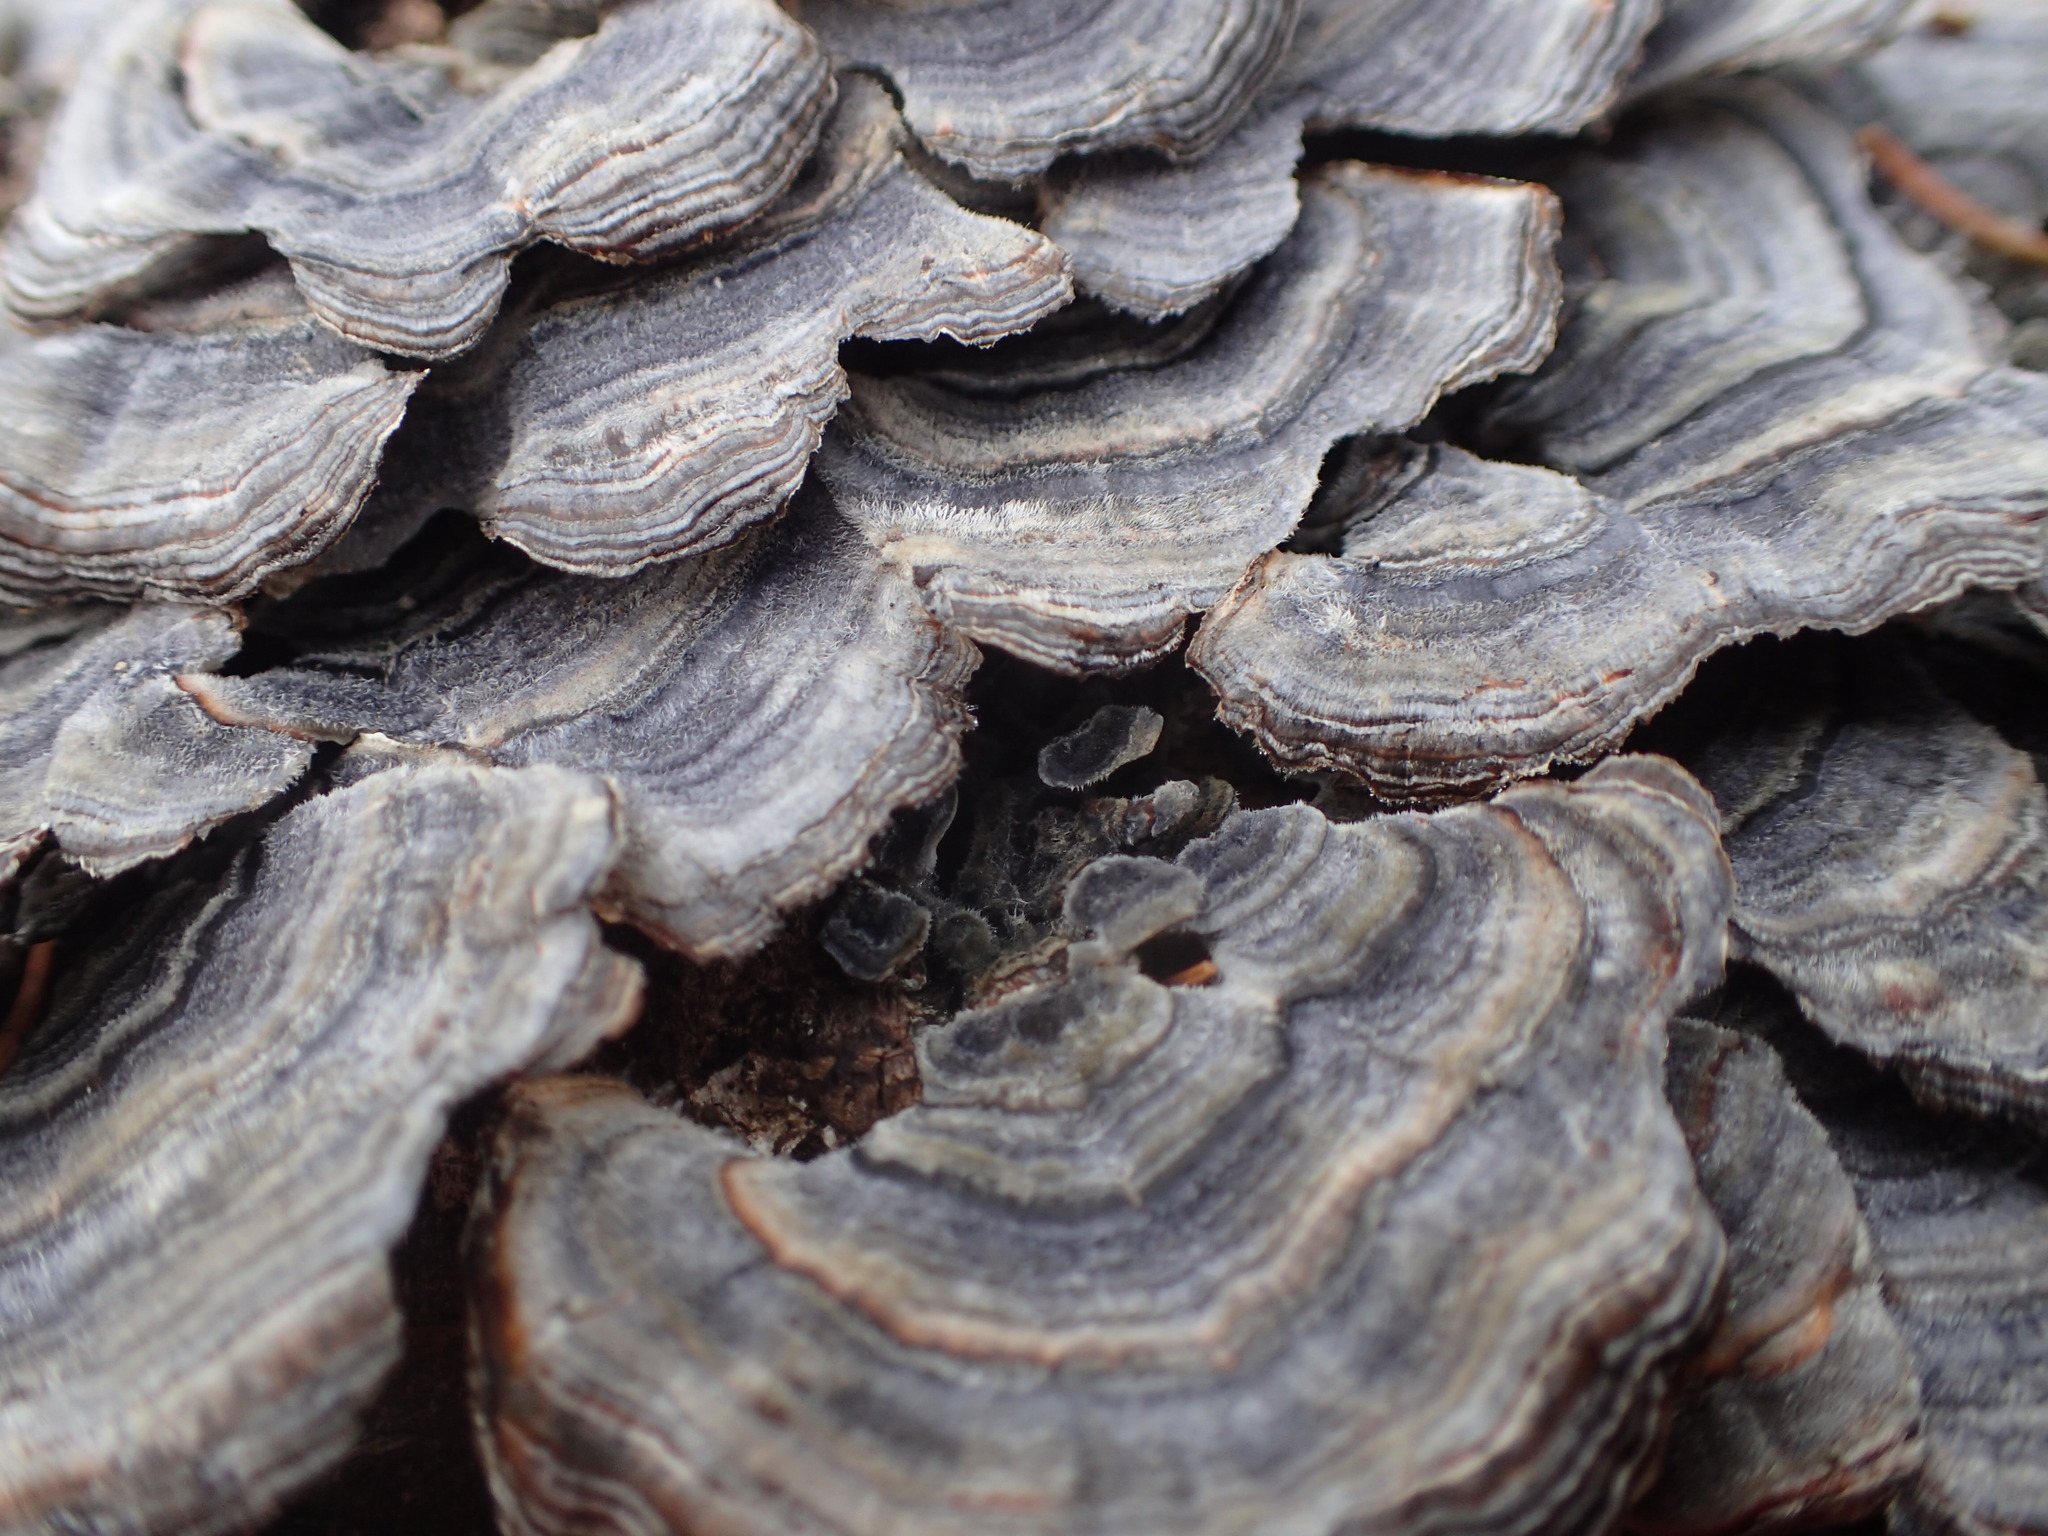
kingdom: Fungi
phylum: Basidiomycota
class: Agaricomycetes
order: Polyporales
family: Polyporaceae
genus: Trametes
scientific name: Trametes versicolor
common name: Turkeytail
